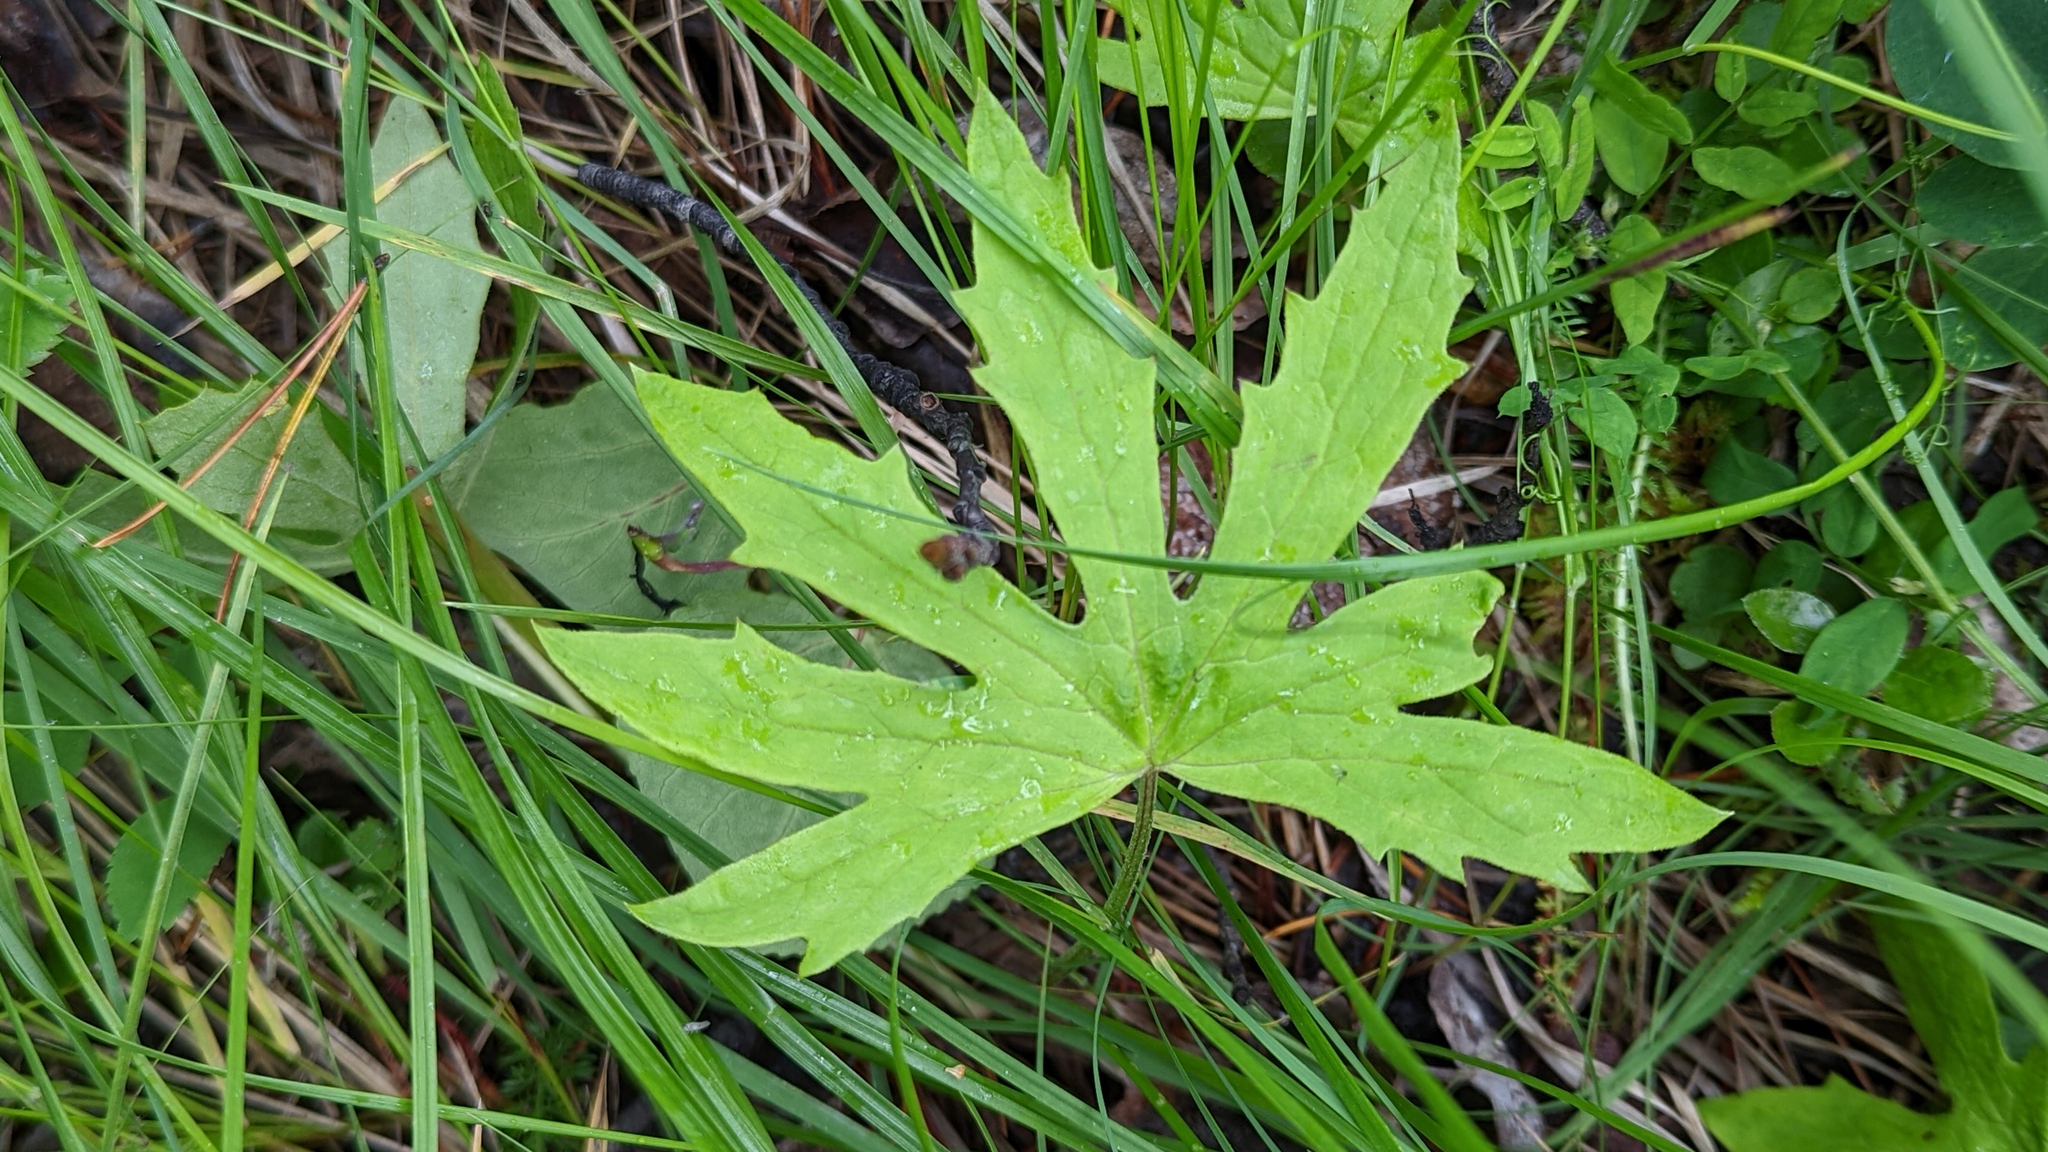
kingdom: Plantae
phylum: Tracheophyta
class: Magnoliopsida
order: Asterales
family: Asteraceae
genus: Petasites
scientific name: Petasites frigidus
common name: Arctic butterbur
